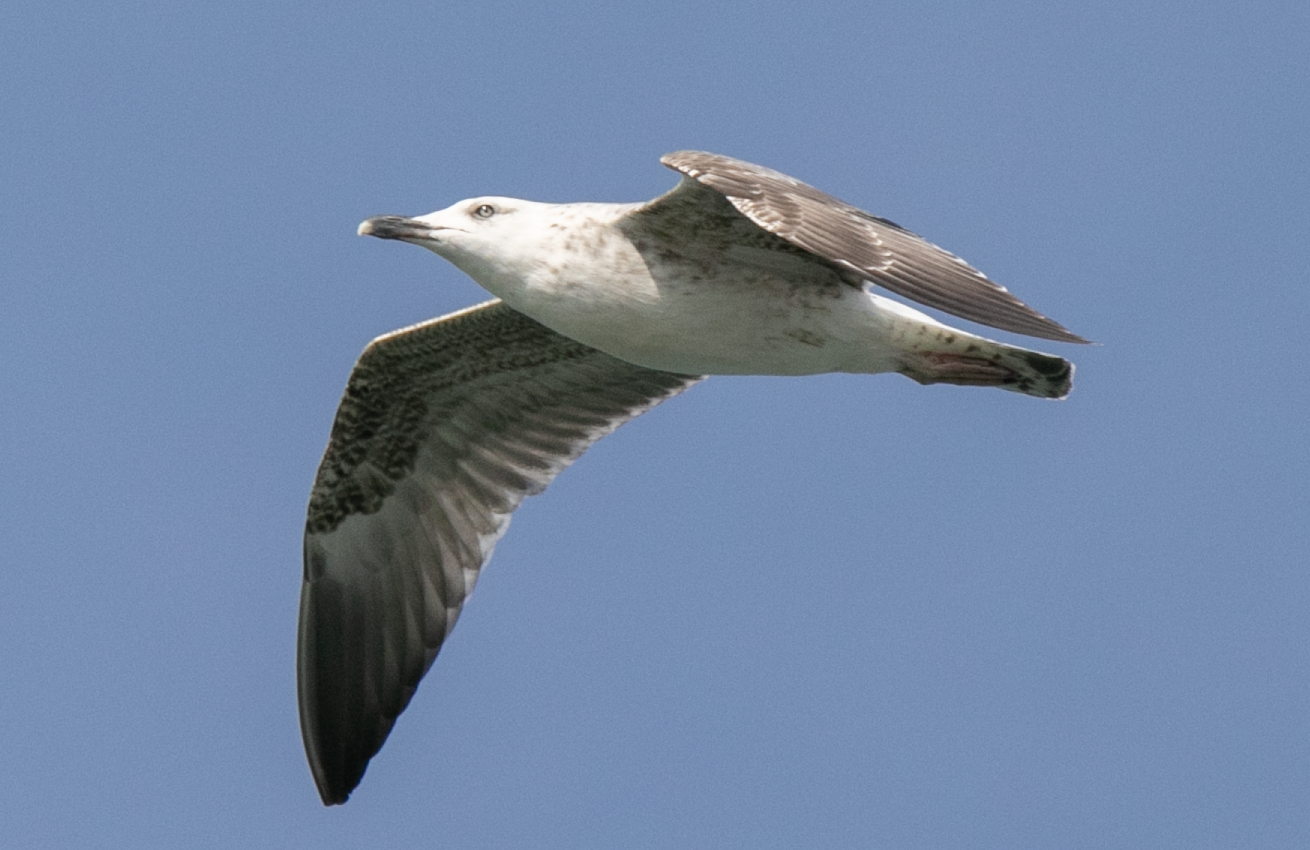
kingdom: Animalia
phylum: Chordata
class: Aves
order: Charadriiformes
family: Laridae
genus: Larus
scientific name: Larus michahellis
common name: Yellow-legged gull
